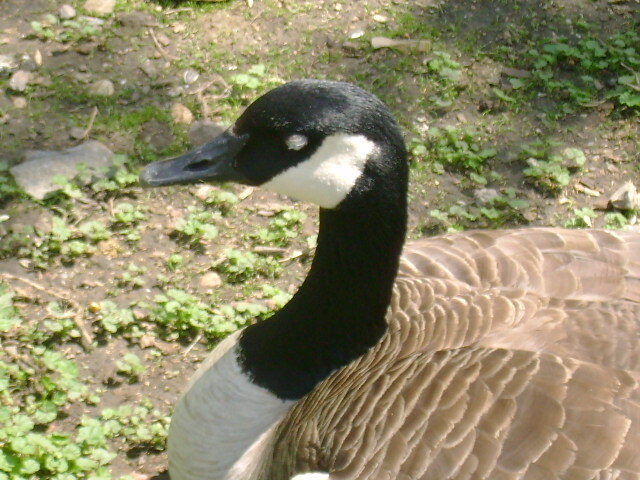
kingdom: Animalia
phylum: Chordata
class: Aves
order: Anseriformes
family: Anatidae
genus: Branta
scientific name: Branta canadensis
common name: Canada goose
